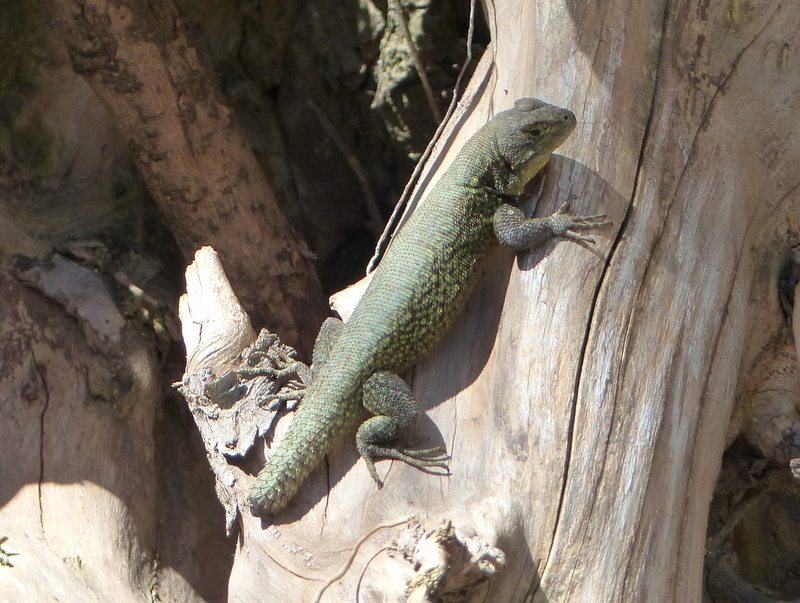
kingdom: Animalia
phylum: Chordata
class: Squamata
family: Phrynosomatidae
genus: Sceloporus
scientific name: Sceloporus grammicus
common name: Mesquite lizard
